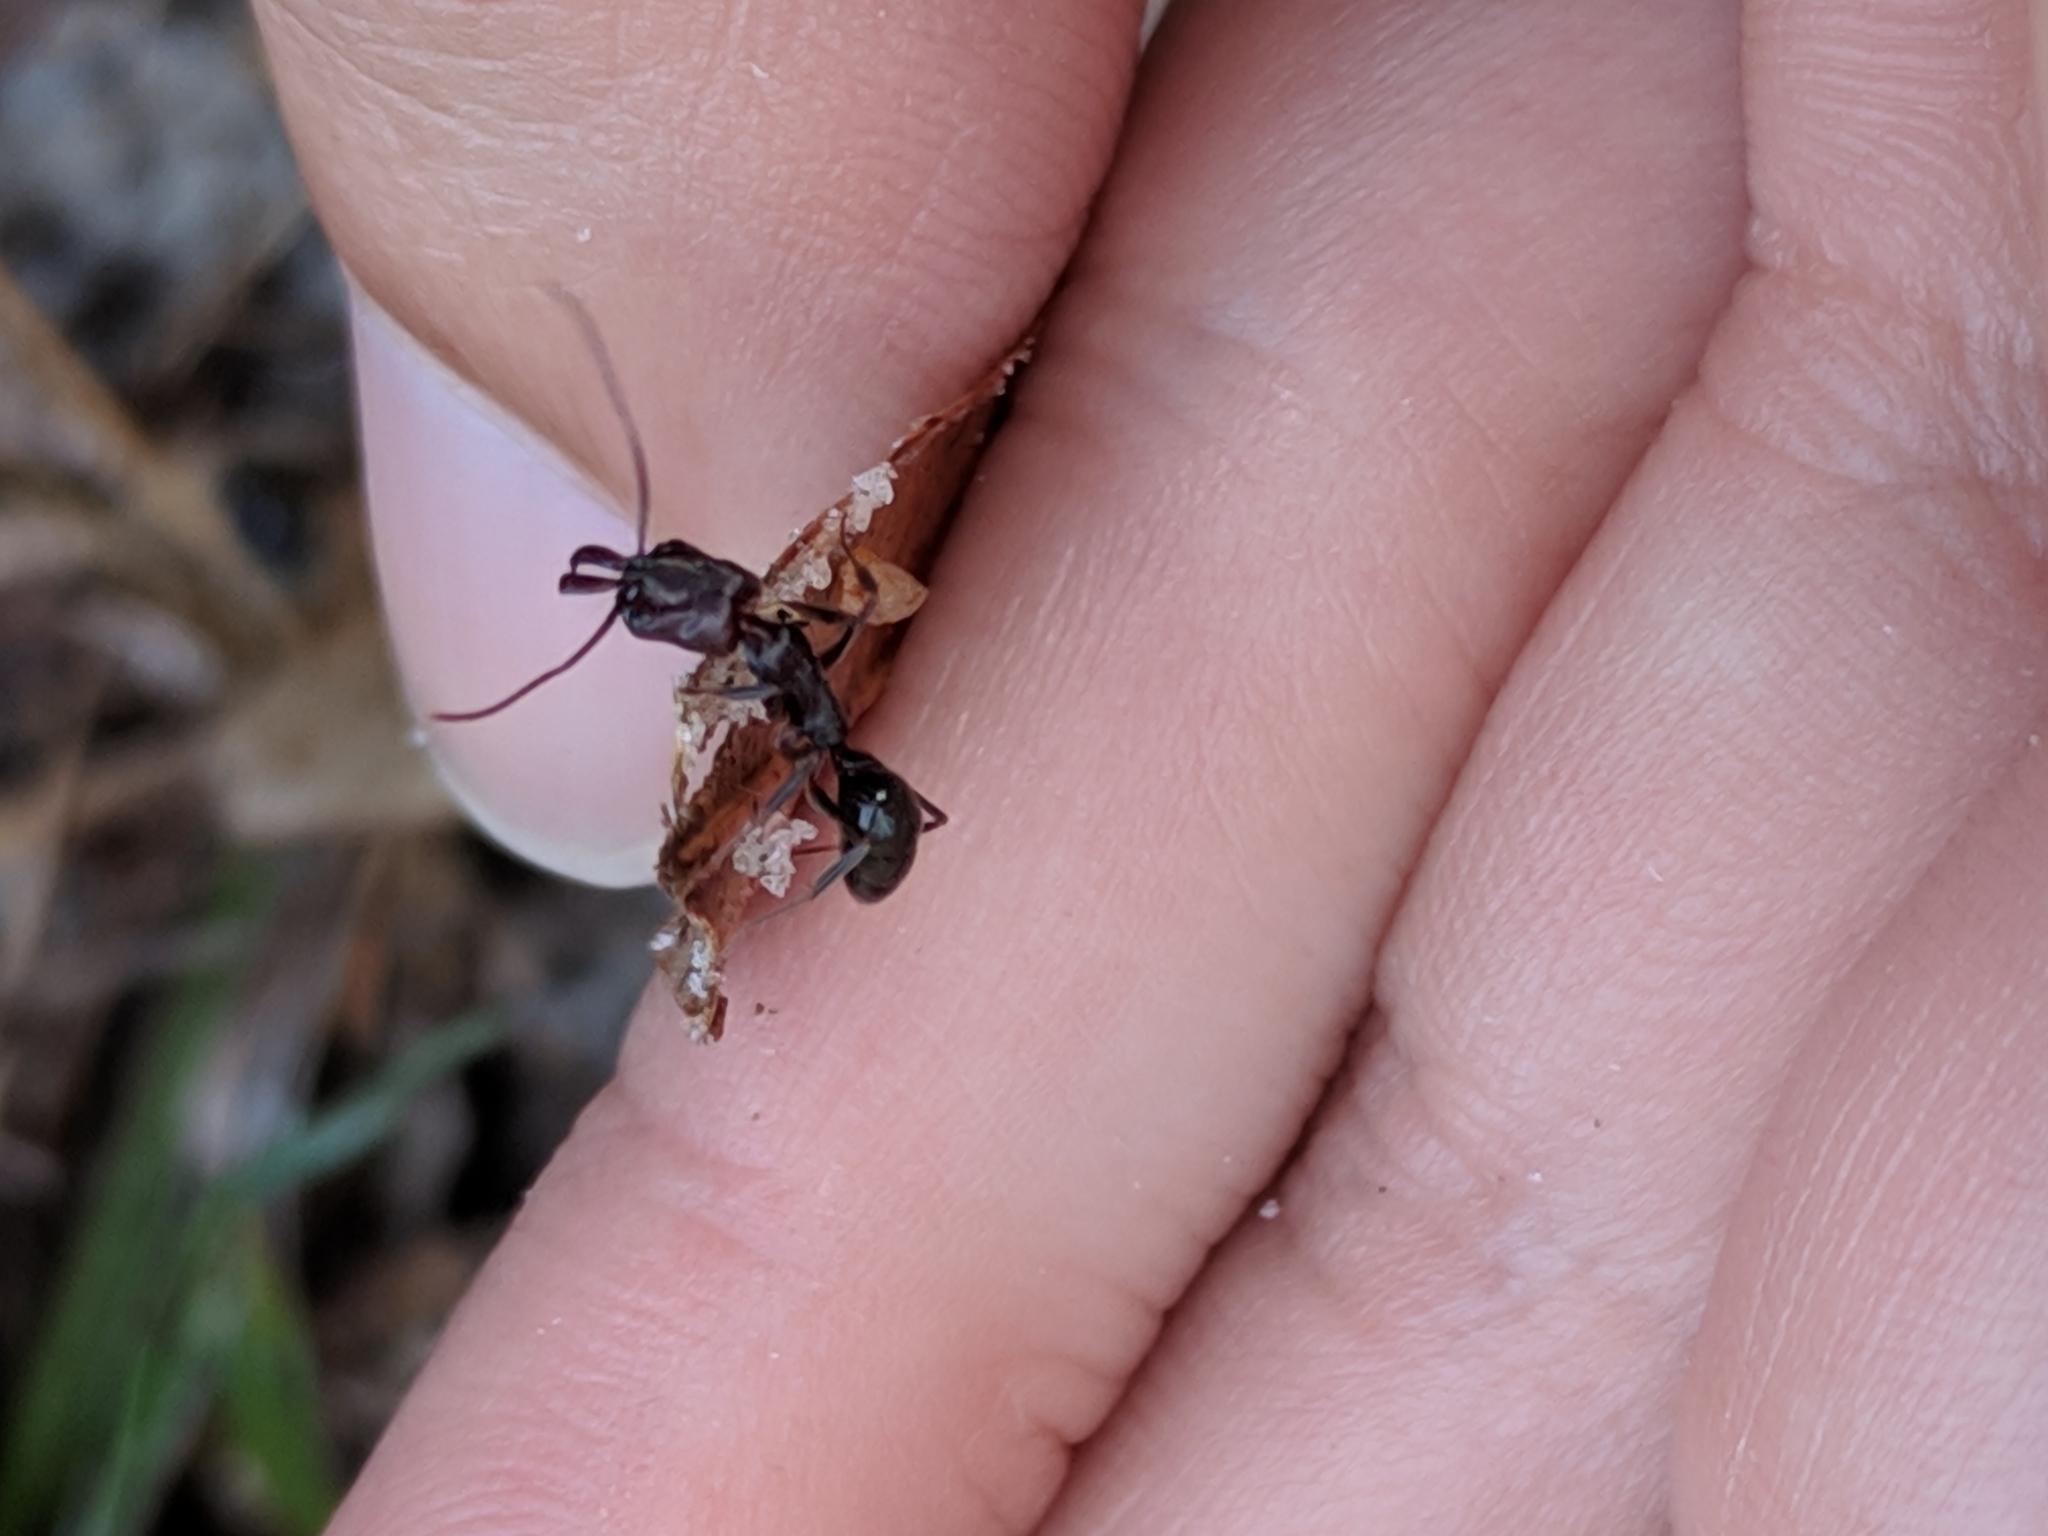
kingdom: Animalia
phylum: Arthropoda
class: Insecta
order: Hymenoptera
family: Formicidae
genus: Odontomachus
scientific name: Odontomachus brunneus
